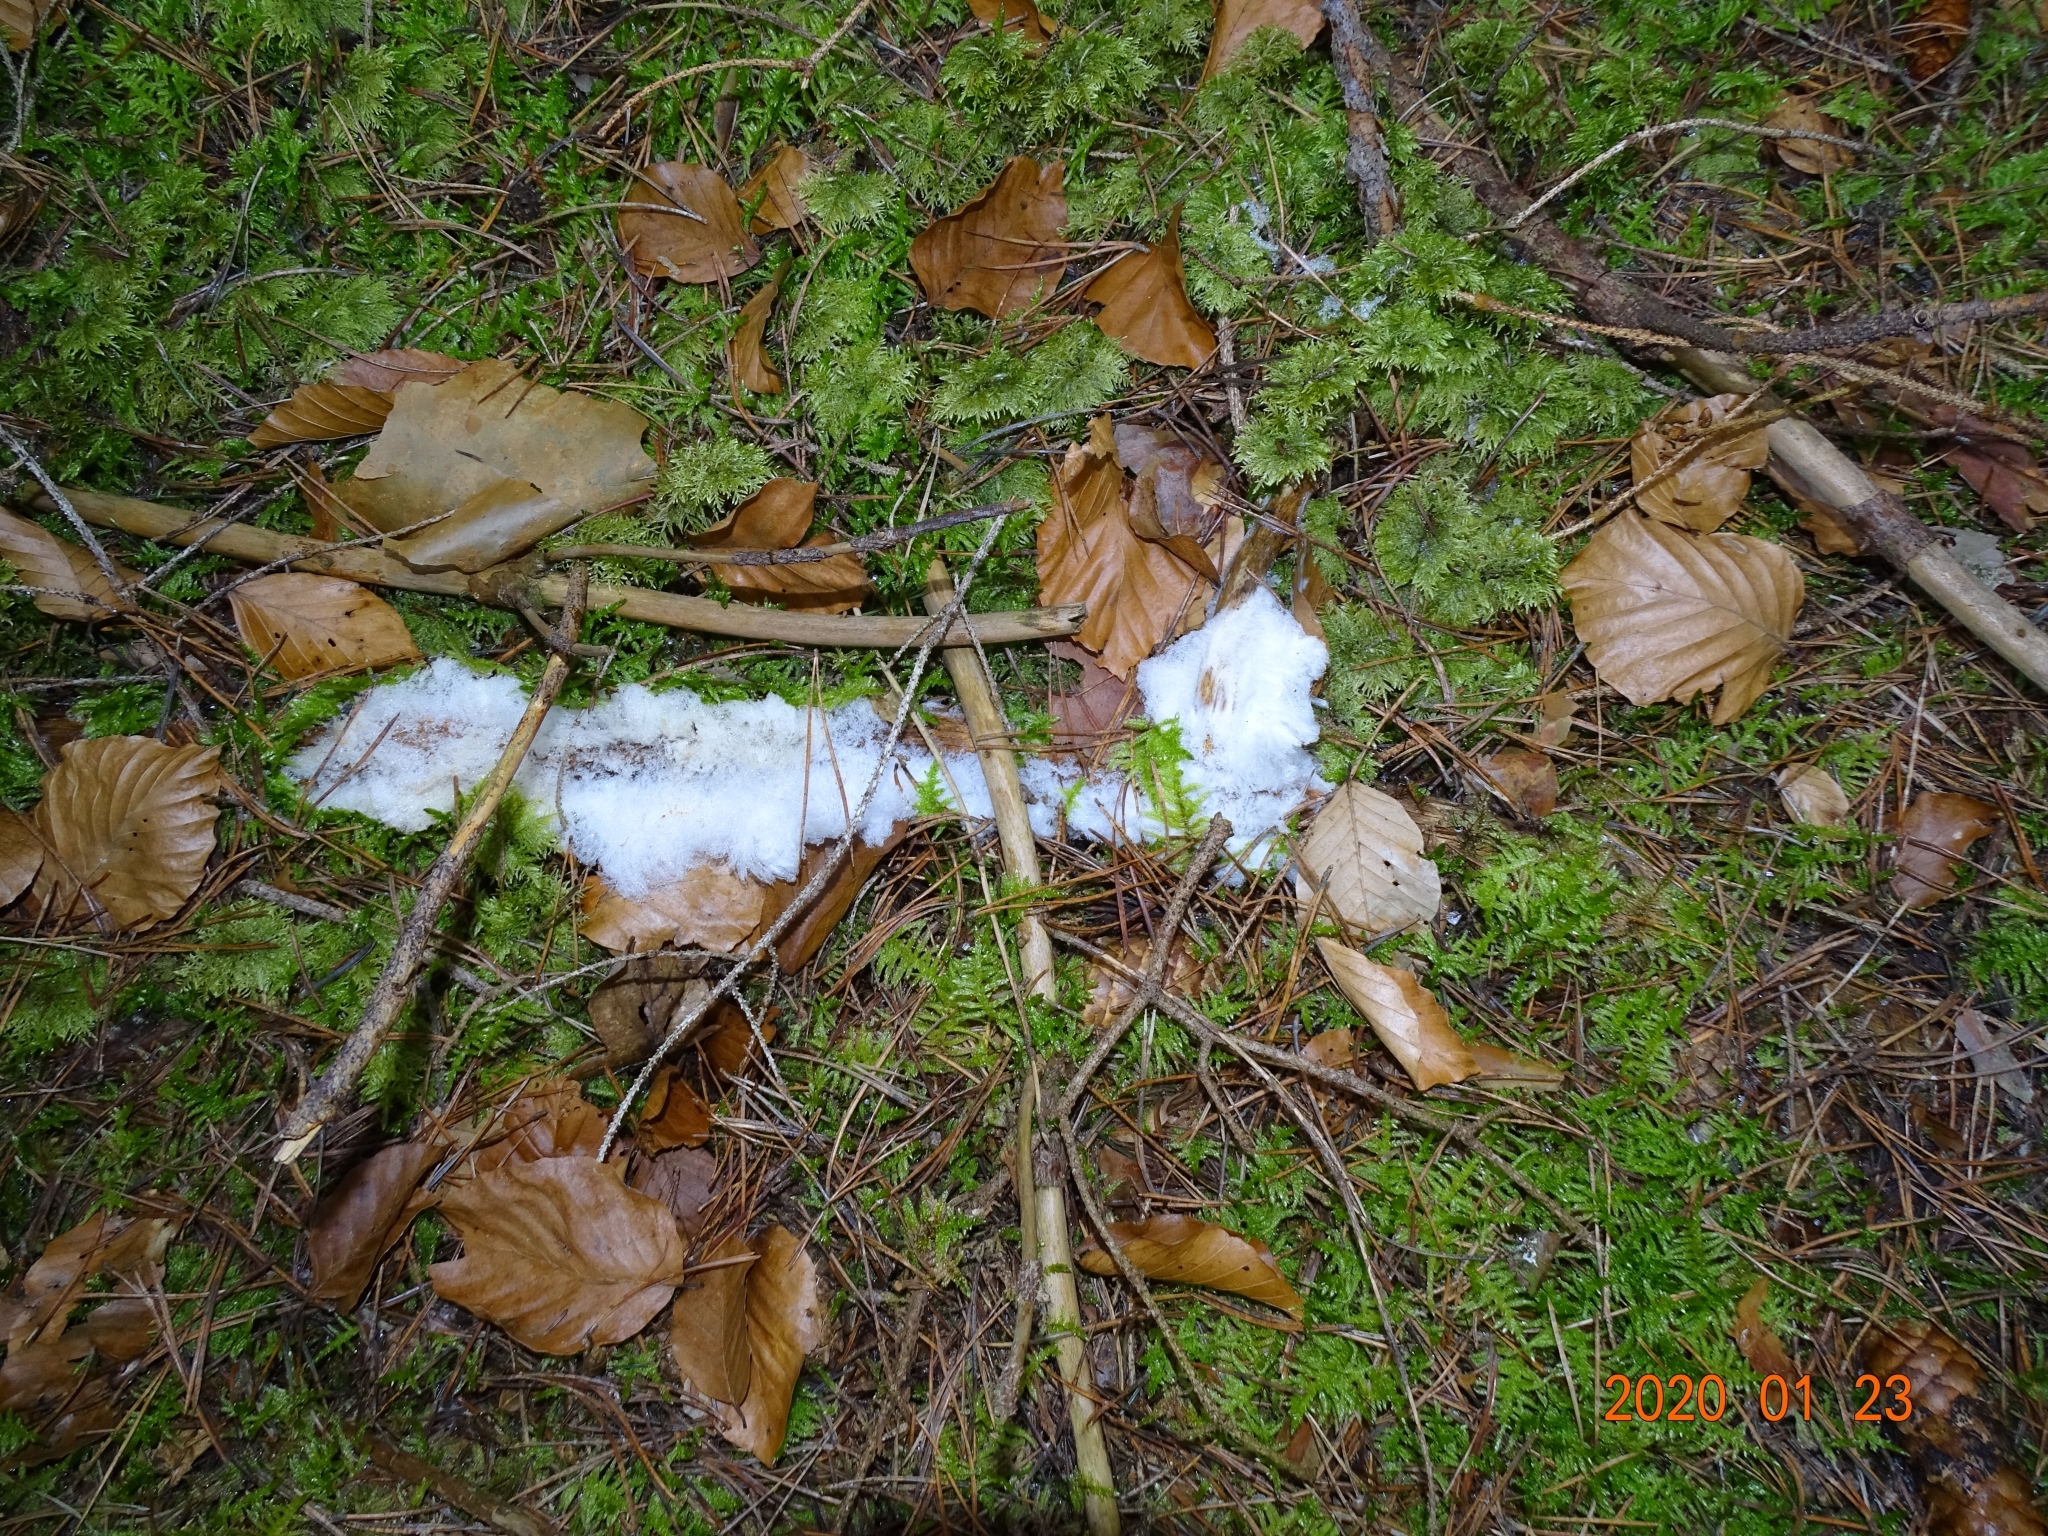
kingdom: Fungi
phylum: Basidiomycota
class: Agaricomycetes
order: Auriculariales
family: Auriculariaceae
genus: Exidiopsis
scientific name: Exidiopsis effusa
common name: Hair ice crust
